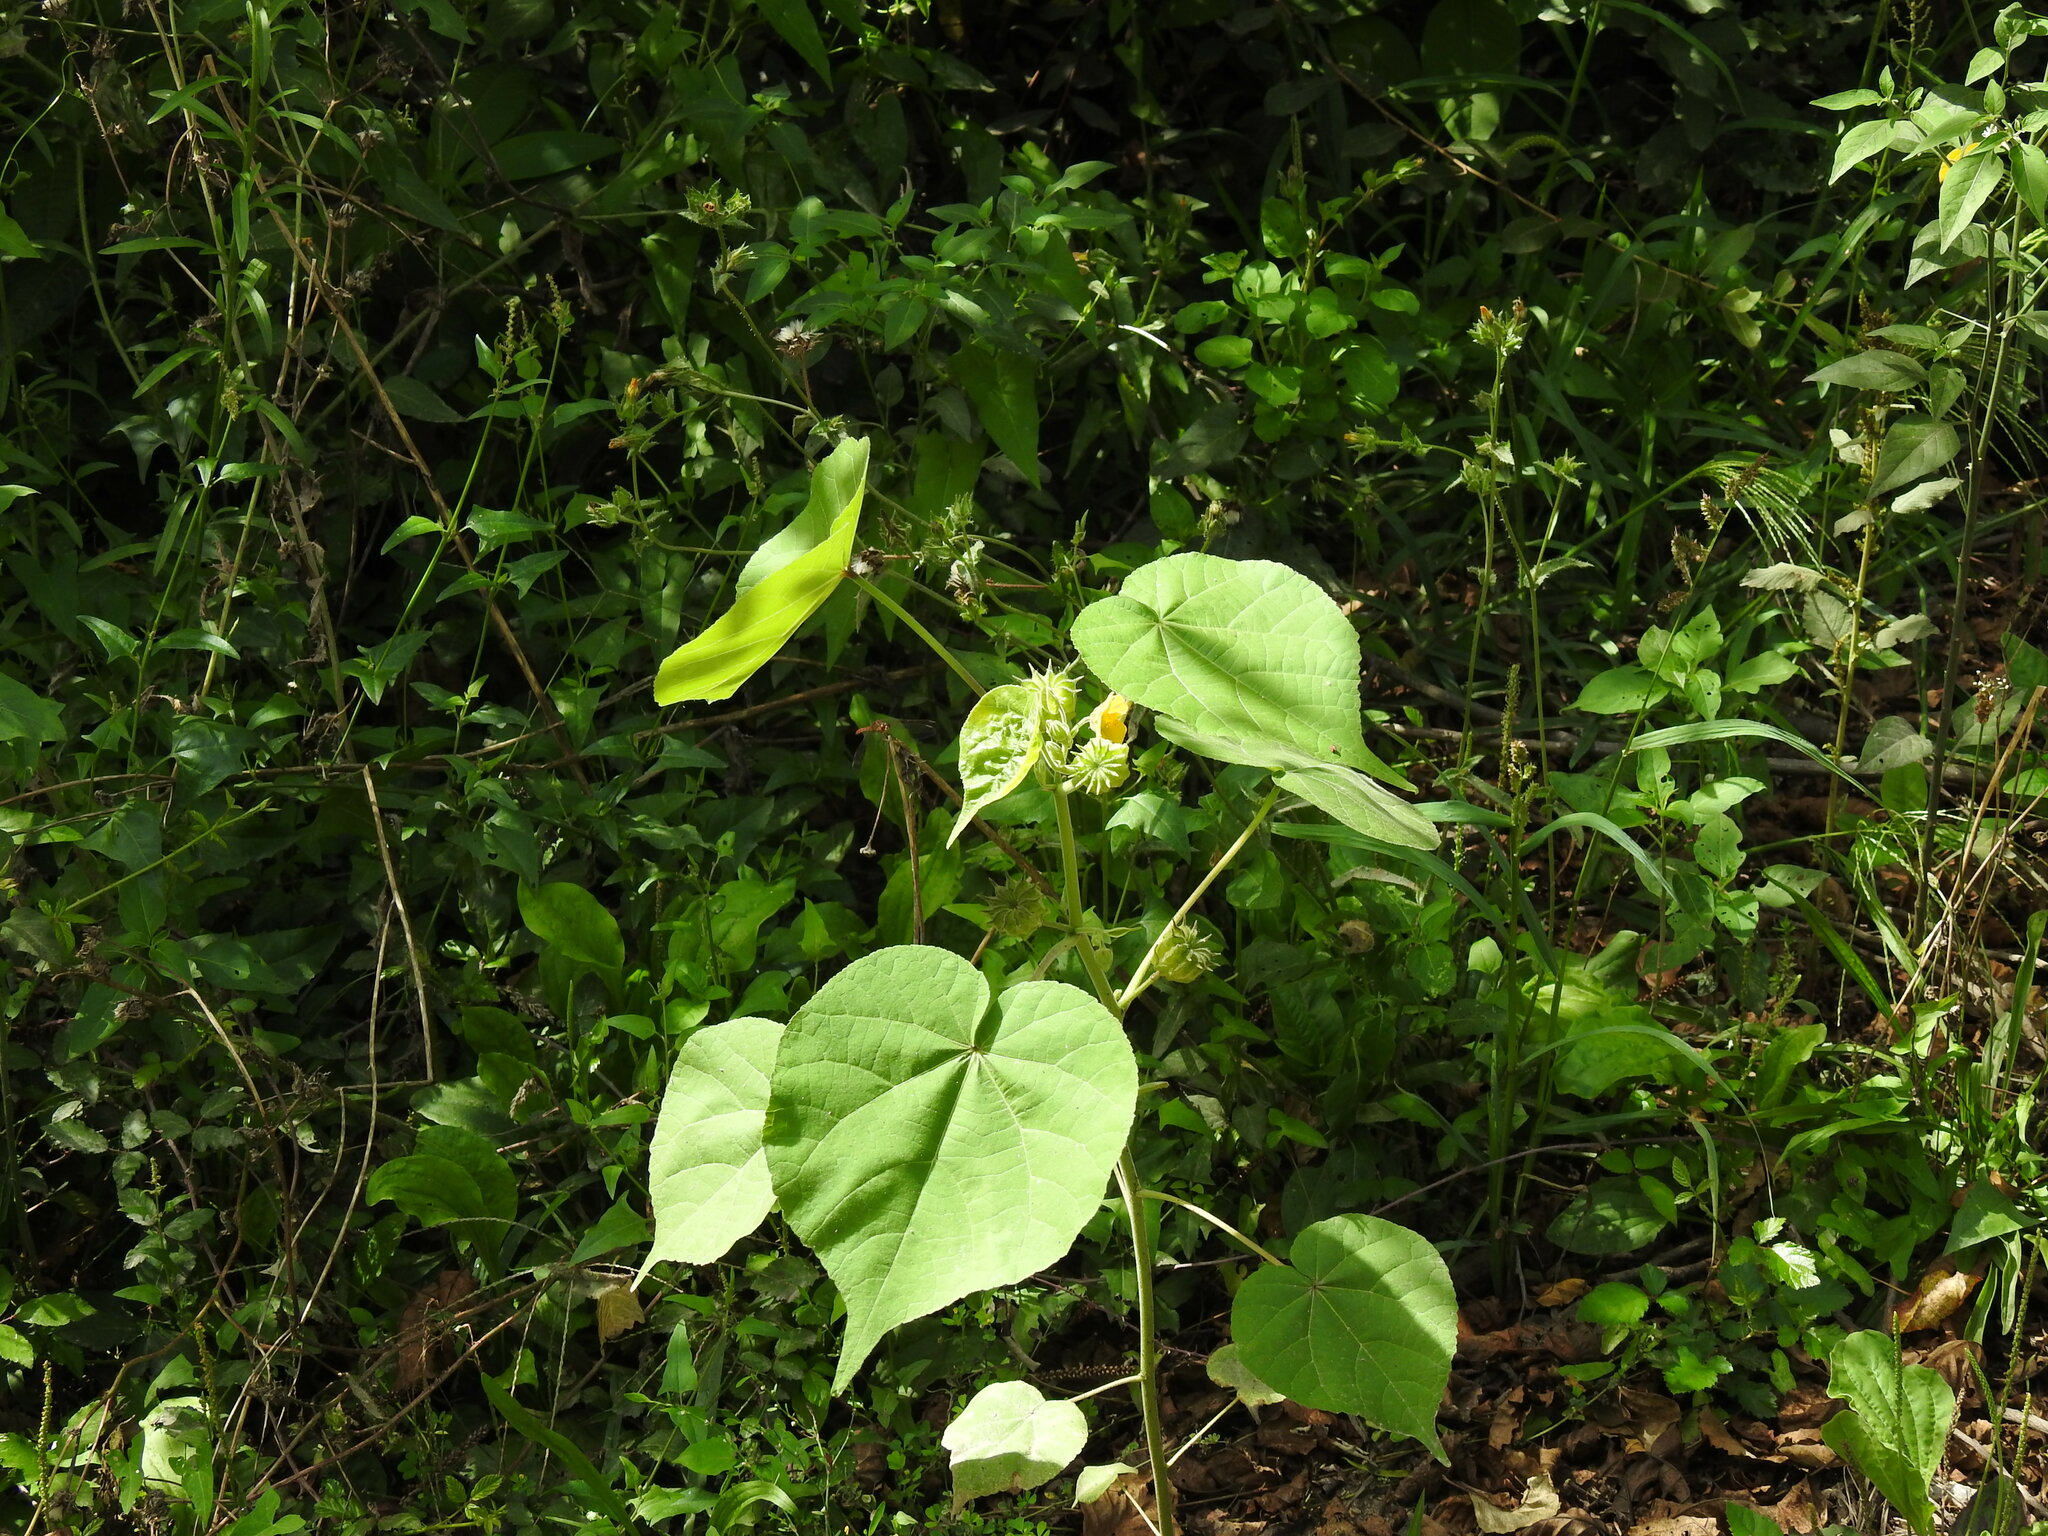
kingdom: Plantae
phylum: Tracheophyta
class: Magnoliopsida
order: Malvales
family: Malvaceae
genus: Abutilon
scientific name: Abutilon theophrasti
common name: Velvetleaf
